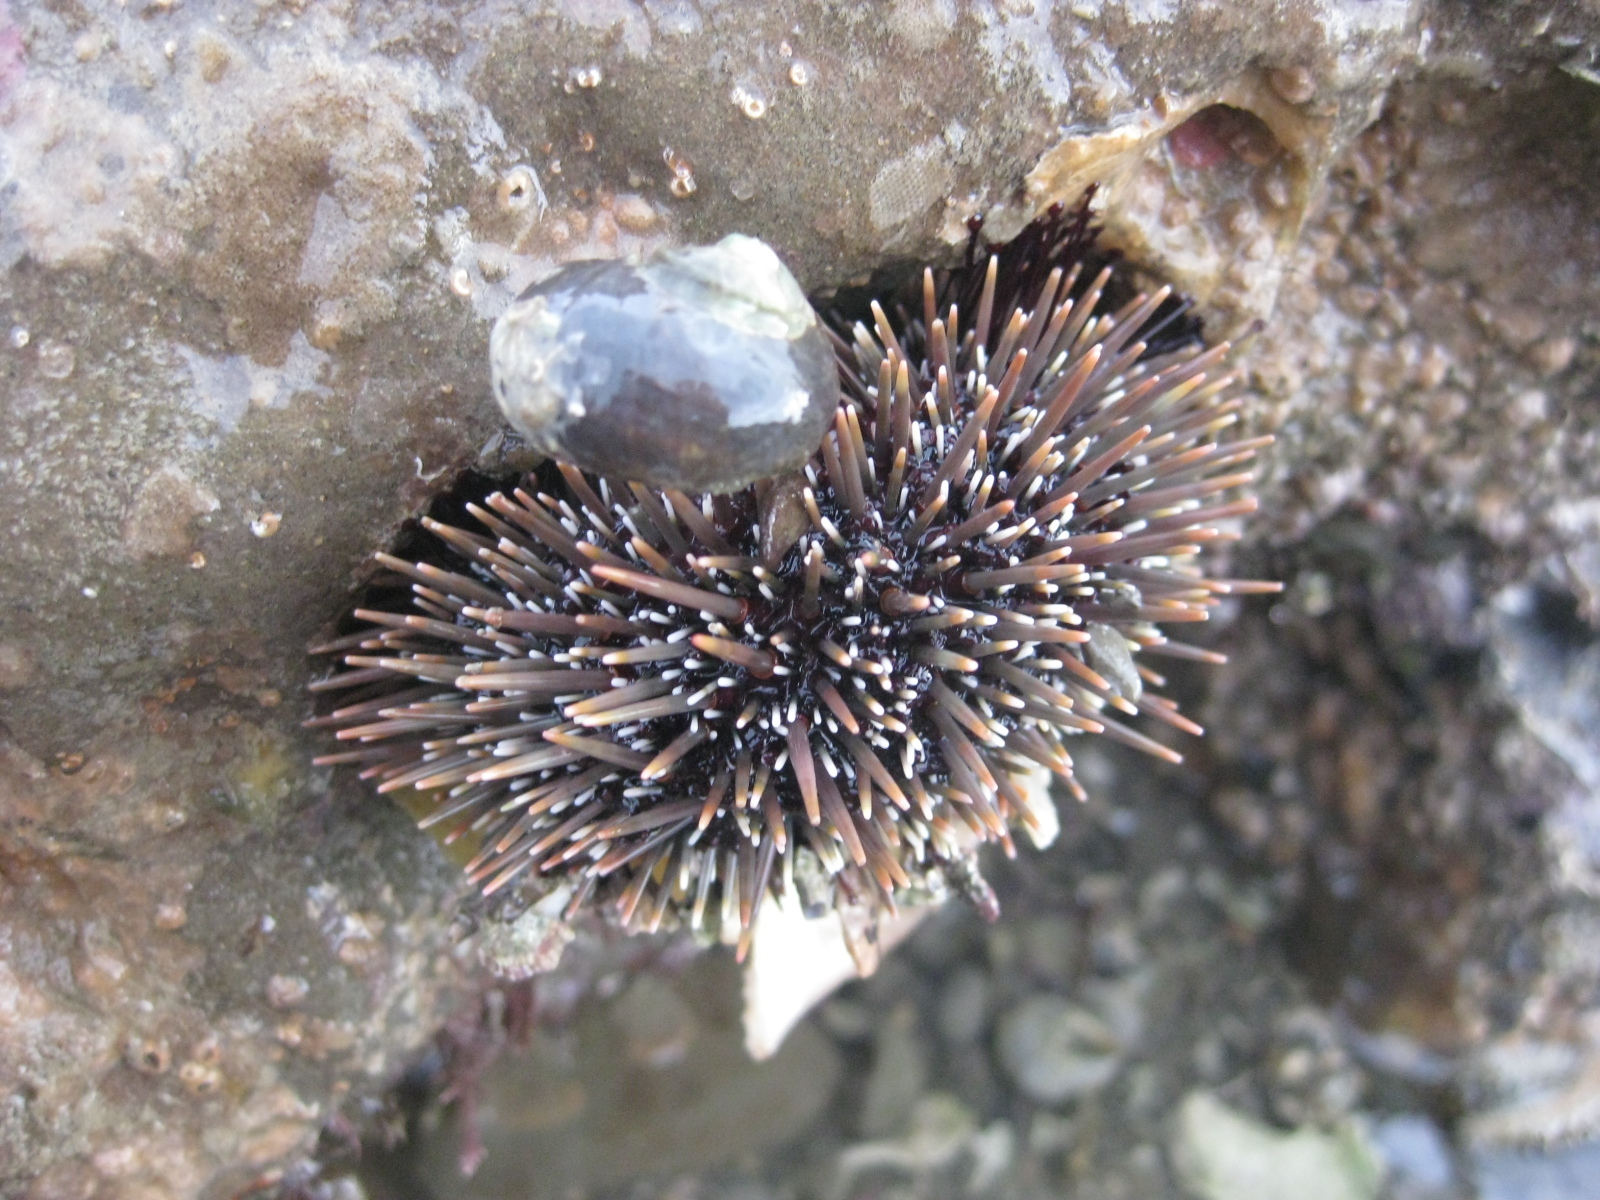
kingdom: Animalia
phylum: Echinodermata
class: Echinoidea
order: Camarodonta
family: Echinometridae
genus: Evechinus
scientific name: Evechinus chloroticus
